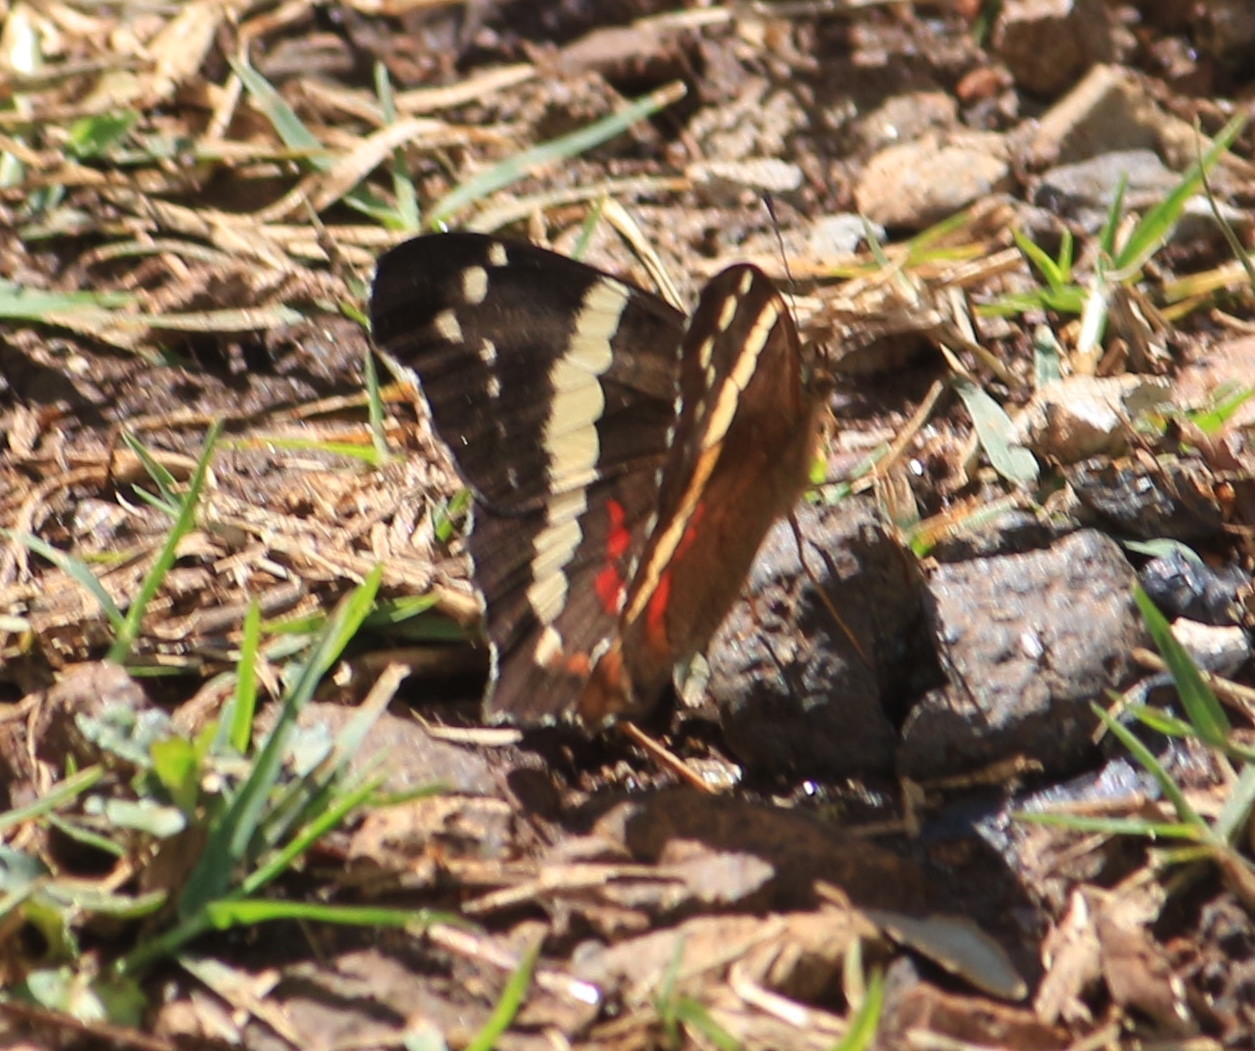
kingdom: Animalia
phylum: Arthropoda
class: Insecta
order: Lepidoptera
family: Nymphalidae
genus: Anartia
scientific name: Anartia fatima
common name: Banded peacock
